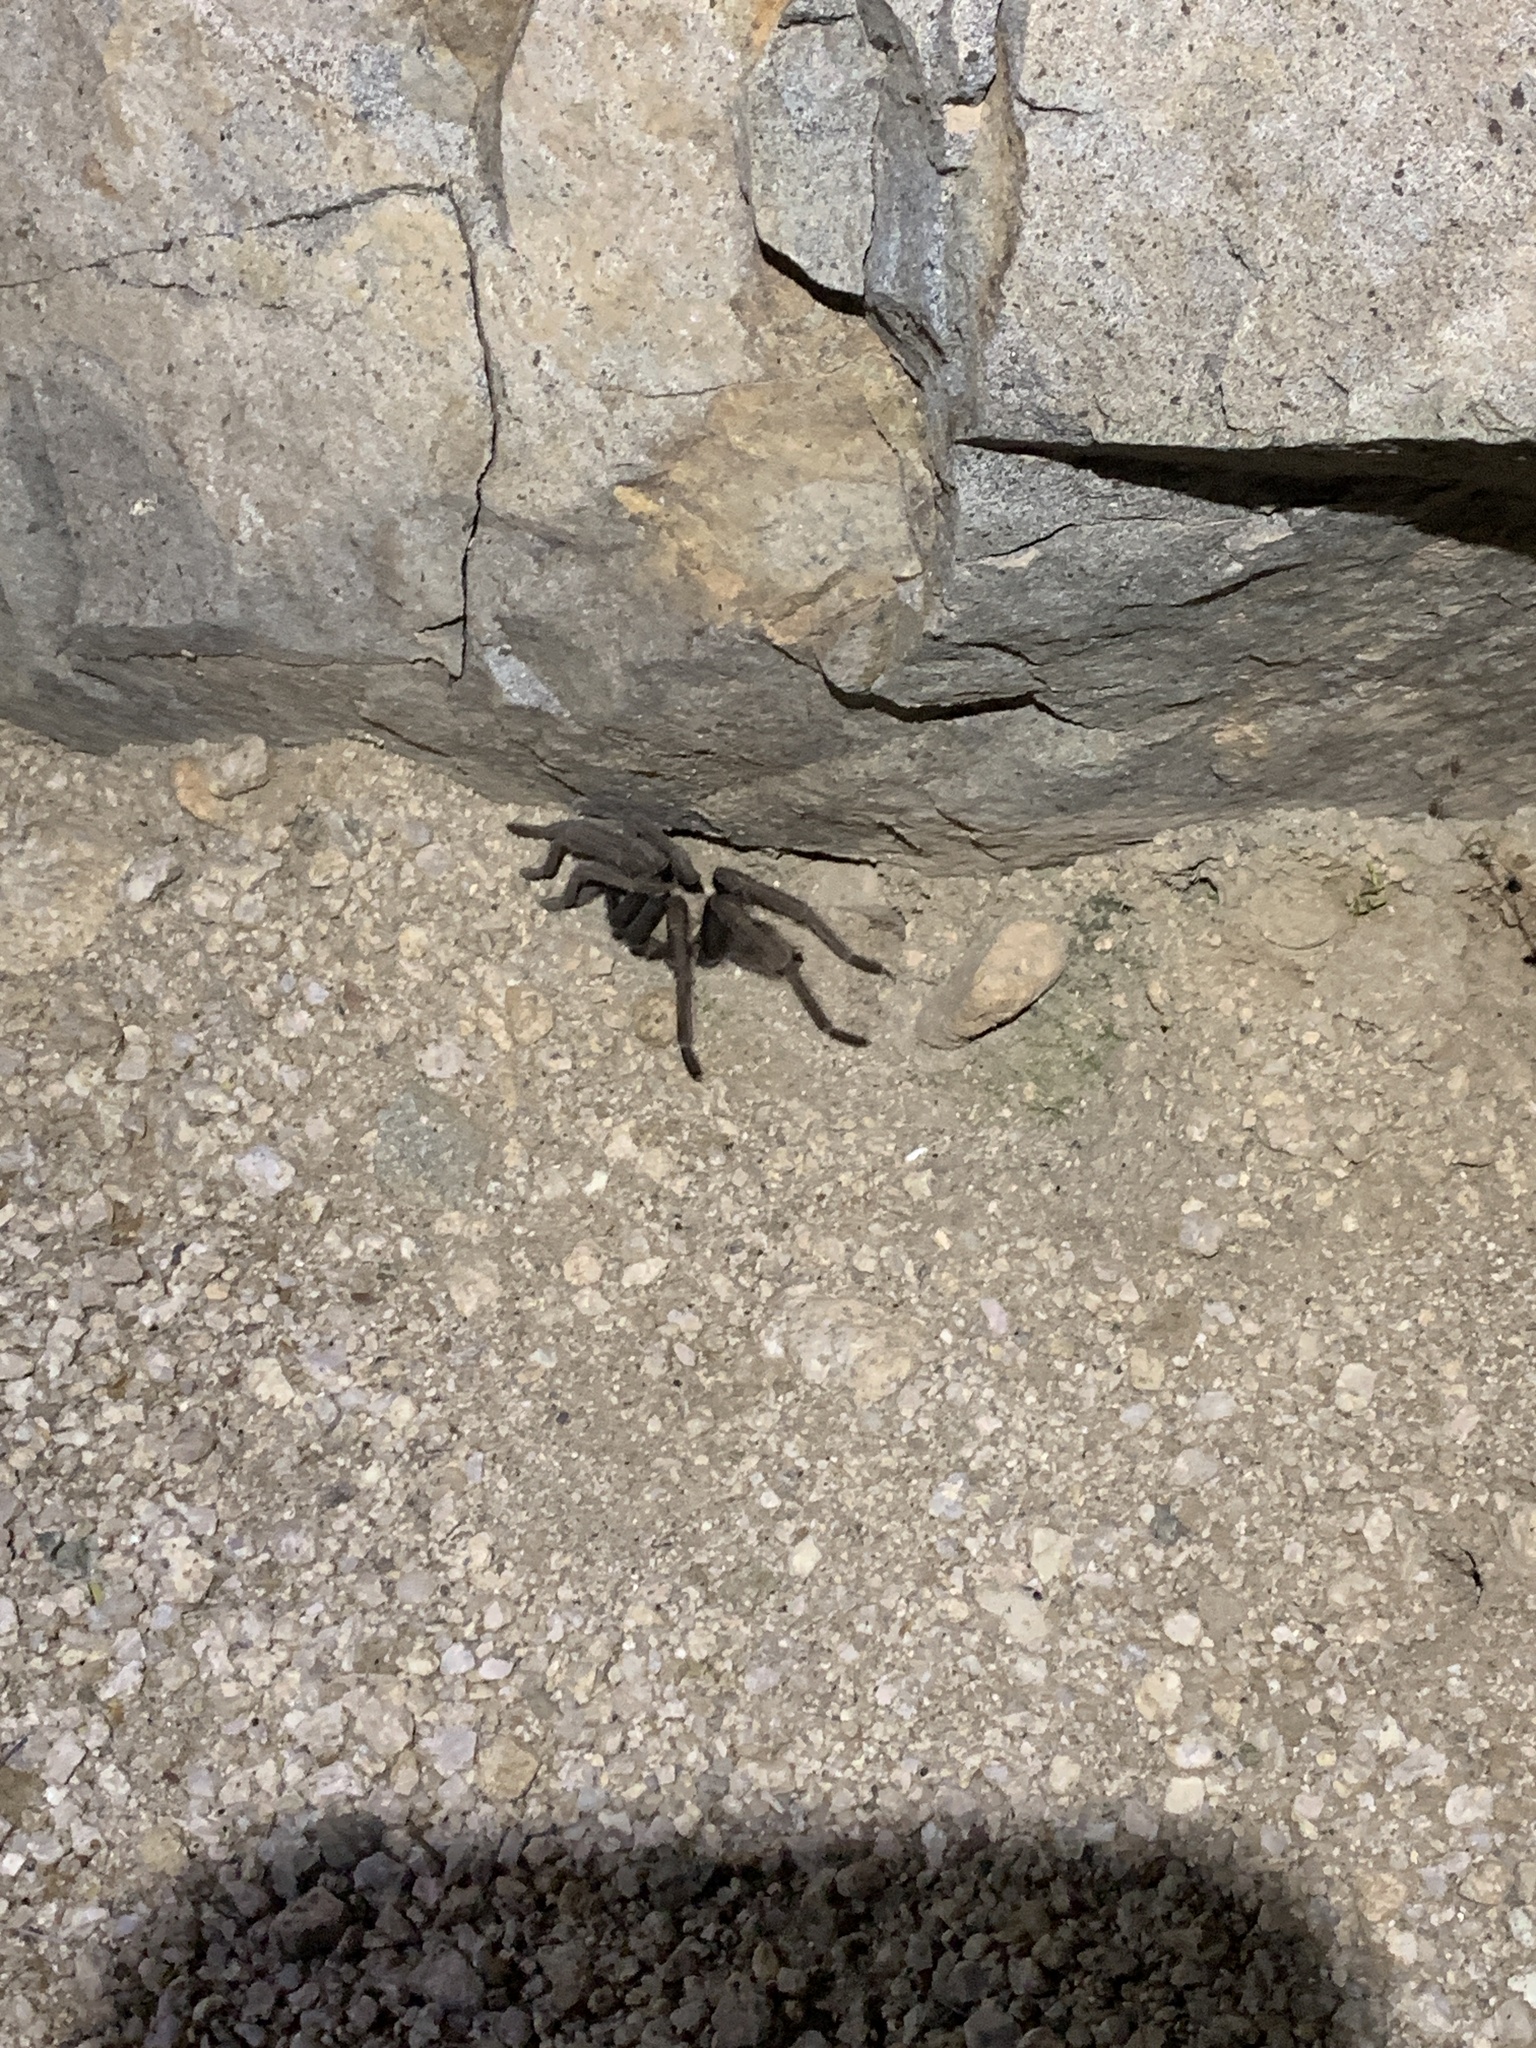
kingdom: Animalia
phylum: Arthropoda
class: Arachnida
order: Araneae
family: Theraphosidae
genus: Aphonopelma
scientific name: Aphonopelma iodius
